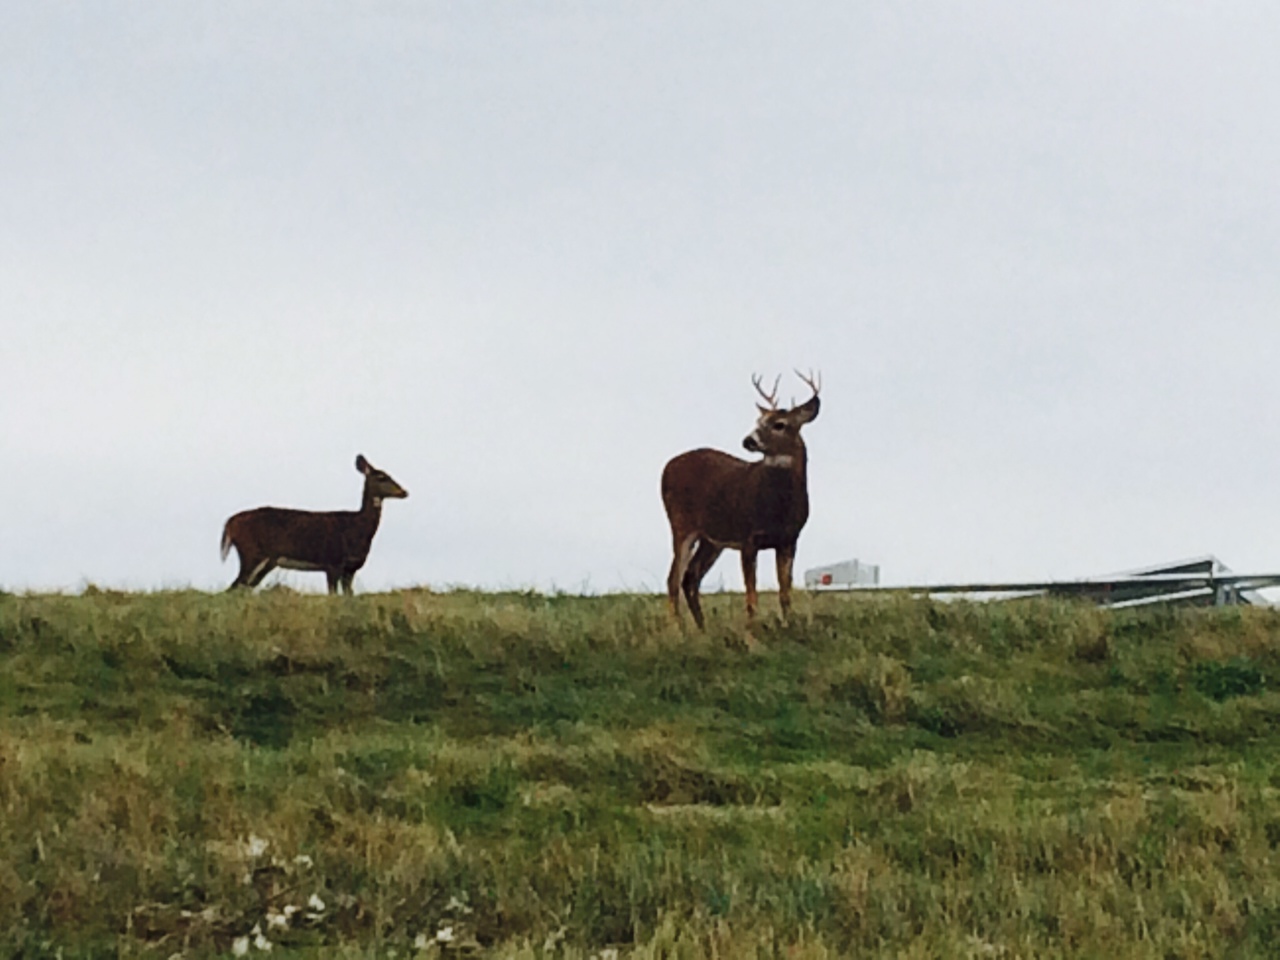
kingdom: Animalia
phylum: Chordata
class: Mammalia
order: Artiodactyla
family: Cervidae
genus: Odocoileus
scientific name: Odocoileus virginianus
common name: White-tailed deer
